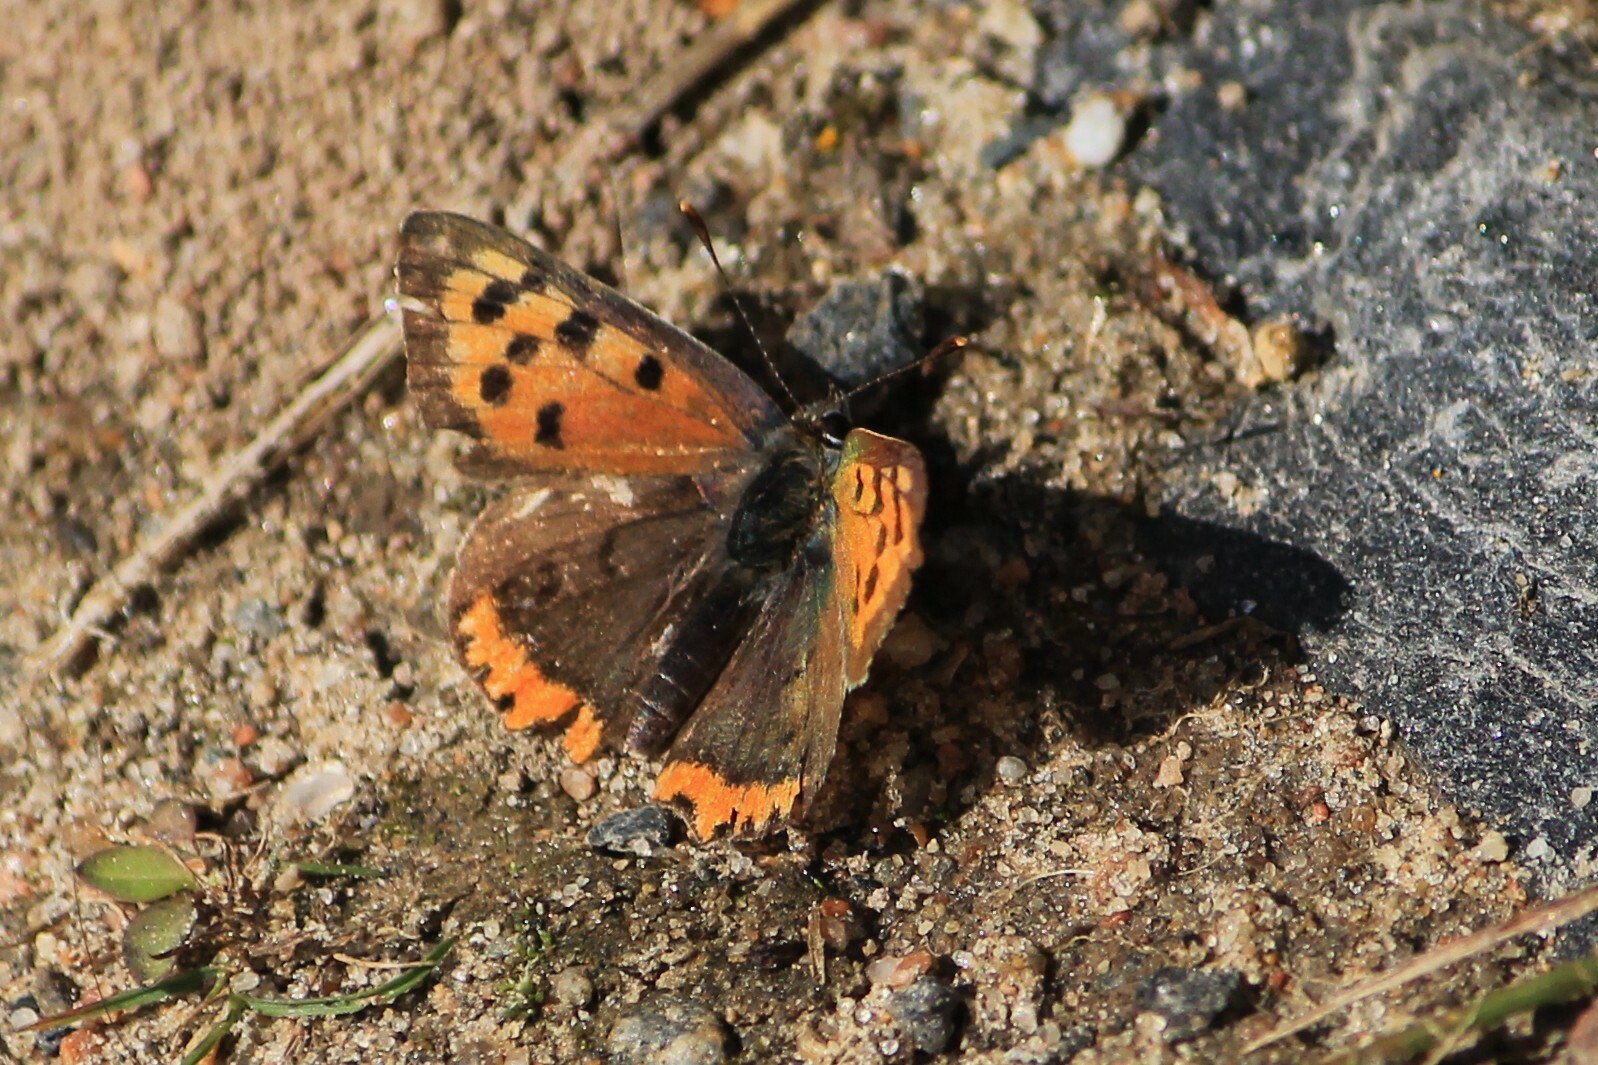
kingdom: Animalia
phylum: Arthropoda
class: Insecta
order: Lepidoptera
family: Lycaenidae
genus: Lycaena
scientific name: Lycaena phlaeas
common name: Small copper
